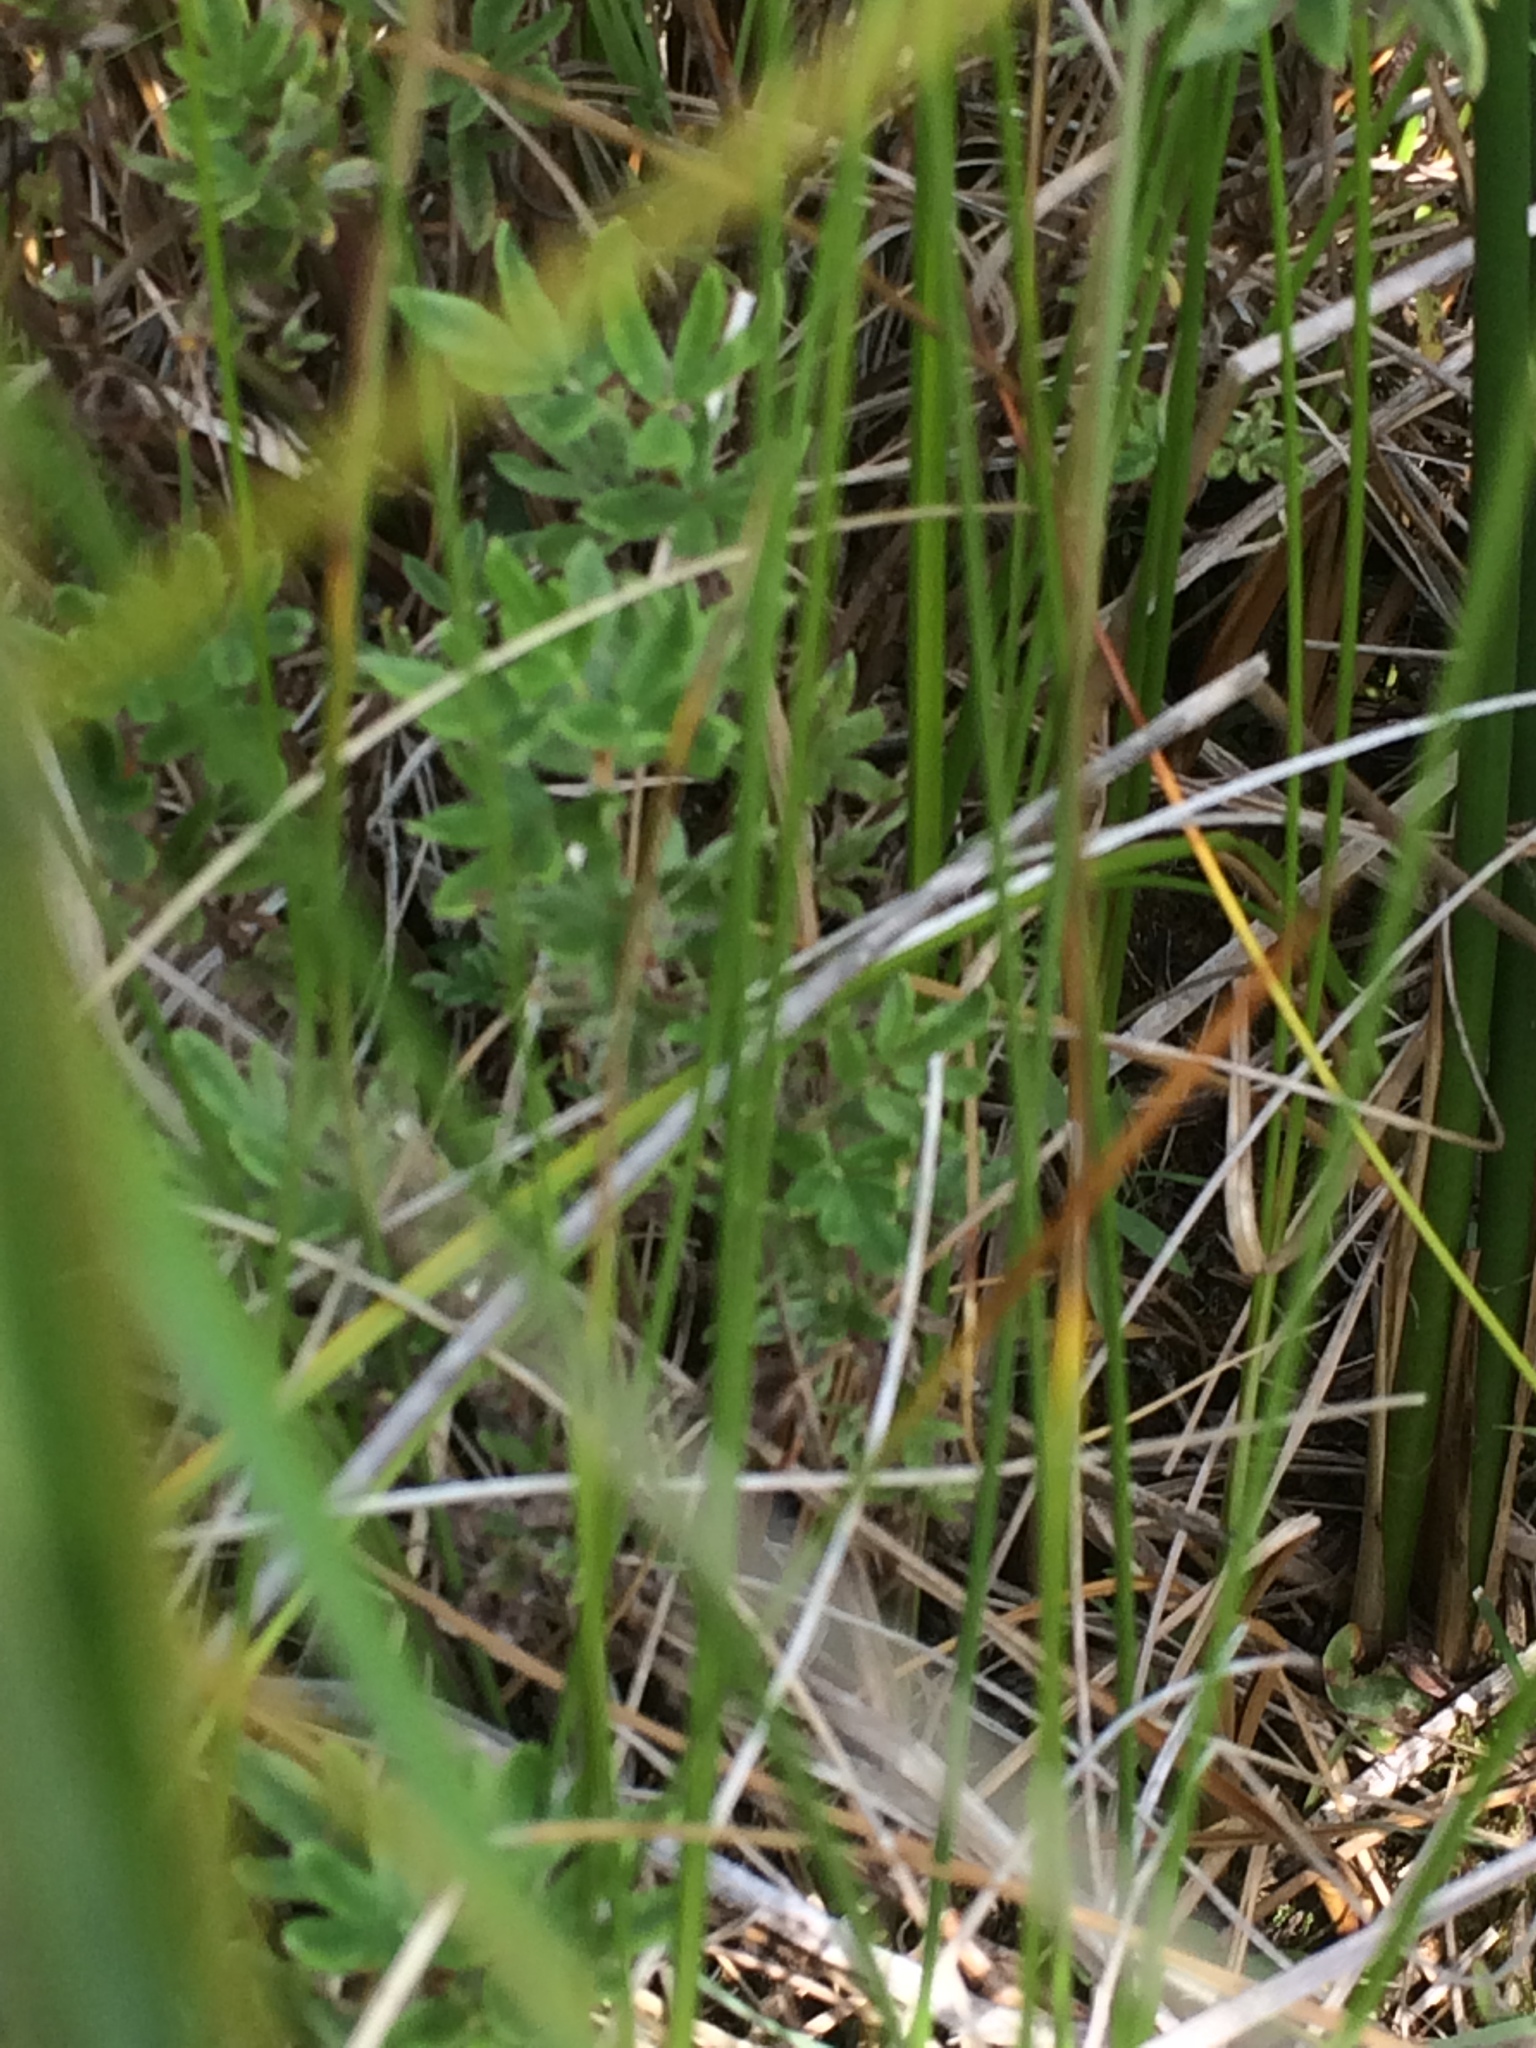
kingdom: Plantae
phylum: Tracheophyta
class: Liliopsida
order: Poales
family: Poaceae
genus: Muhlenbergia
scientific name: Muhlenbergia glomerata
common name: Bog muhly
